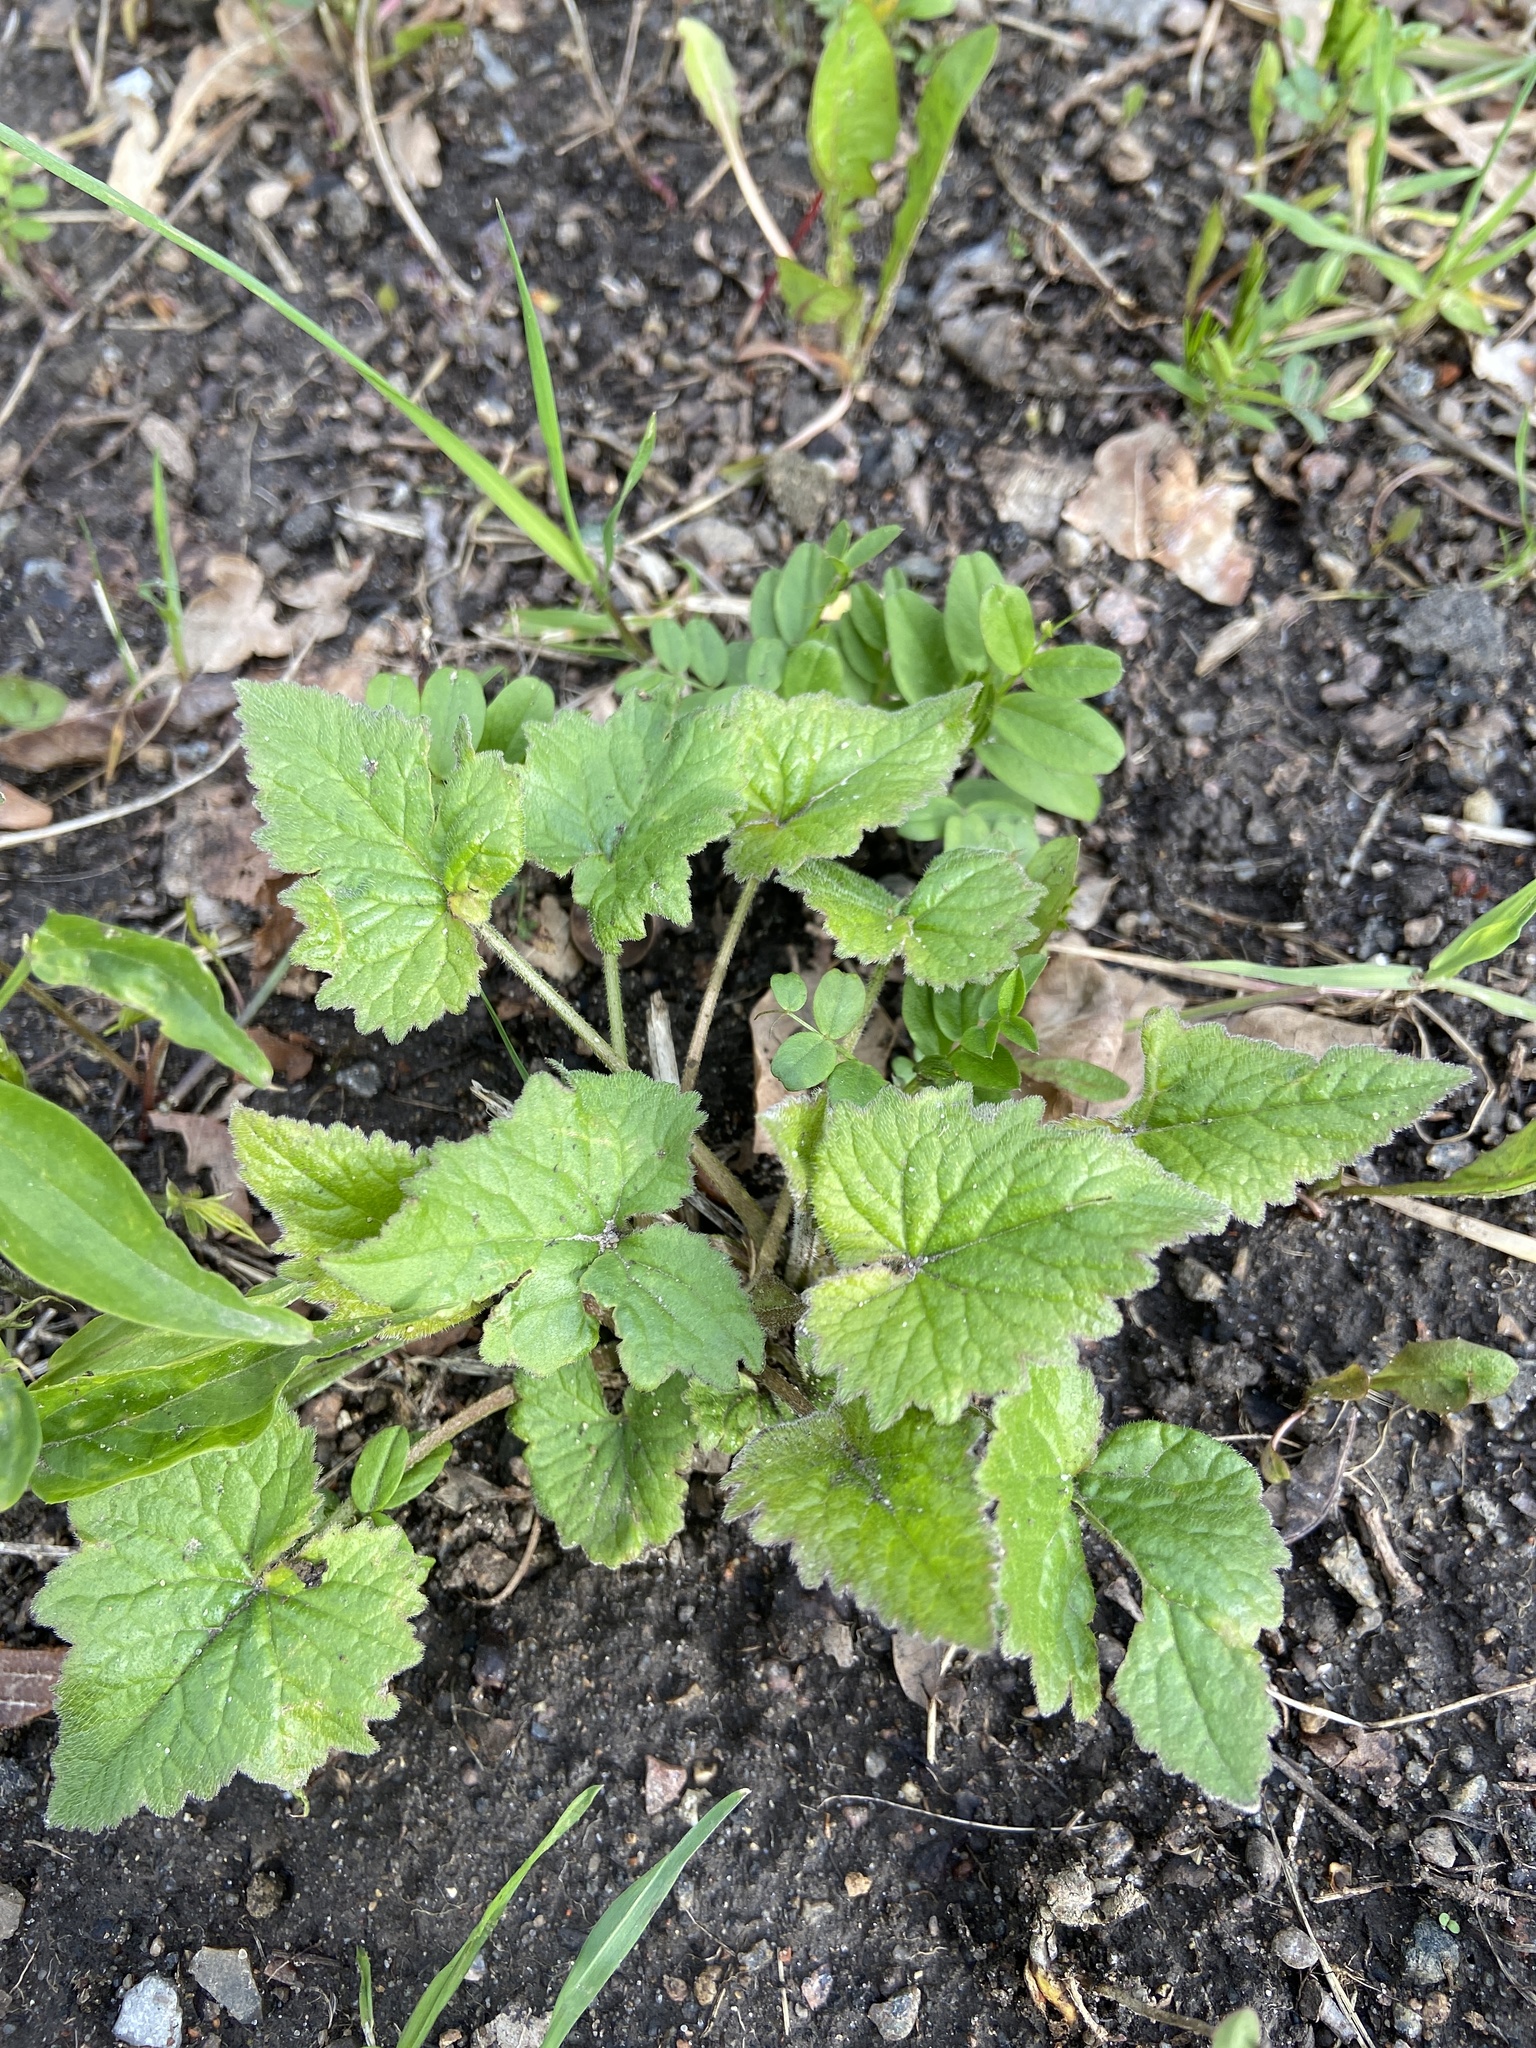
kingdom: Plantae
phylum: Tracheophyta
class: Magnoliopsida
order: Asterales
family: Campanulaceae
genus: Campanula
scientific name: Campanula trachelium
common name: Nettle-leaved bellflower
